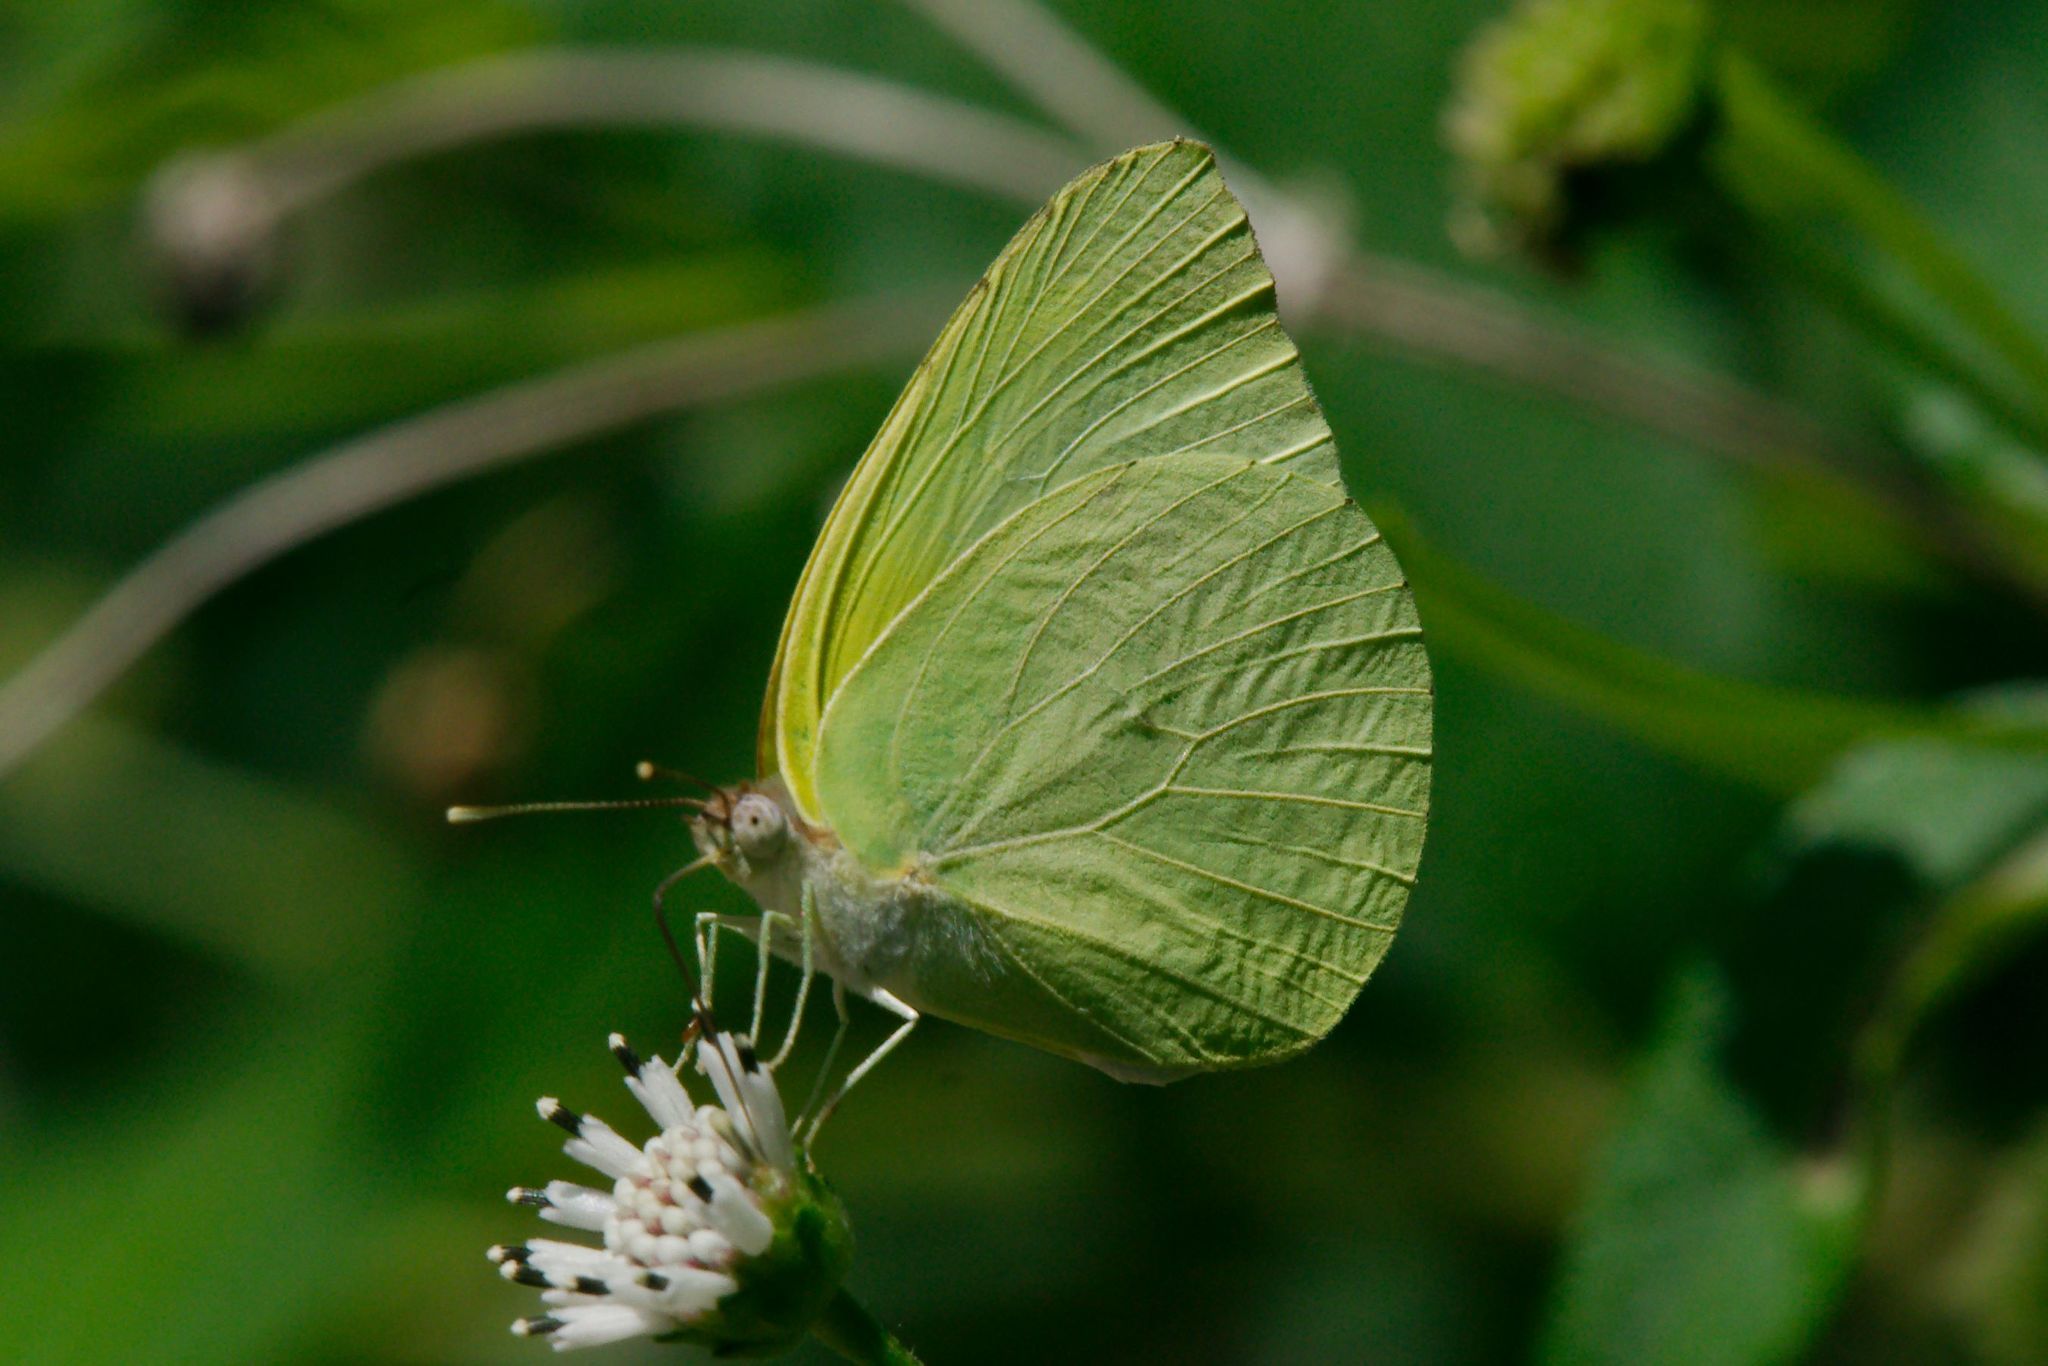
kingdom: Animalia
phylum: Arthropoda
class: Insecta
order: Lepidoptera
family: Pieridae
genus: Kricogonia
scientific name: Kricogonia lyside
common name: Guayacan sulphur,
